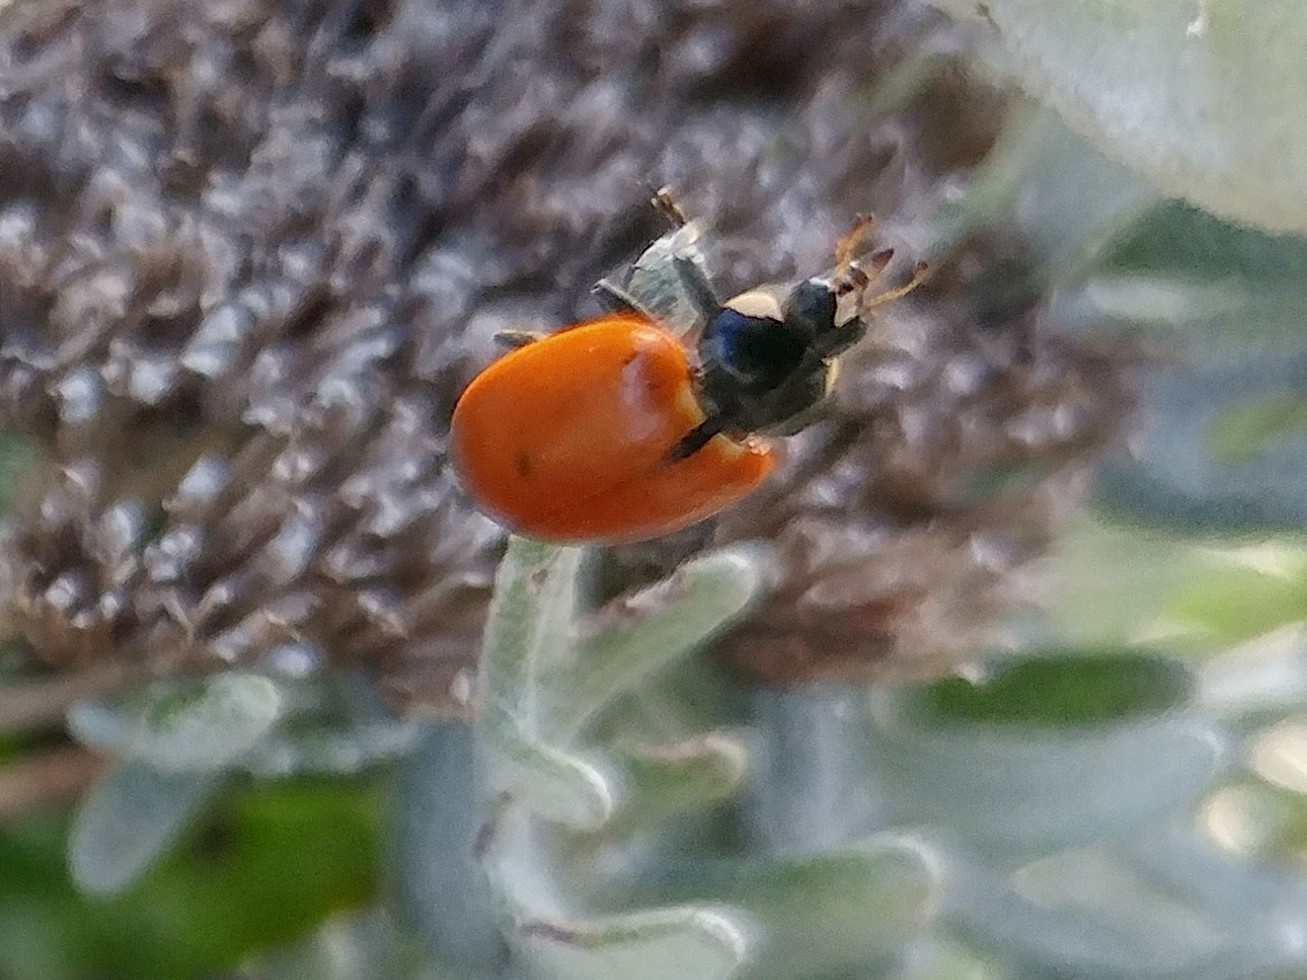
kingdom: Animalia
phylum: Arthropoda
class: Insecta
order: Coleoptera
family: Coccinellidae
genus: Hippodamia
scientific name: Hippodamia quinquesignata
